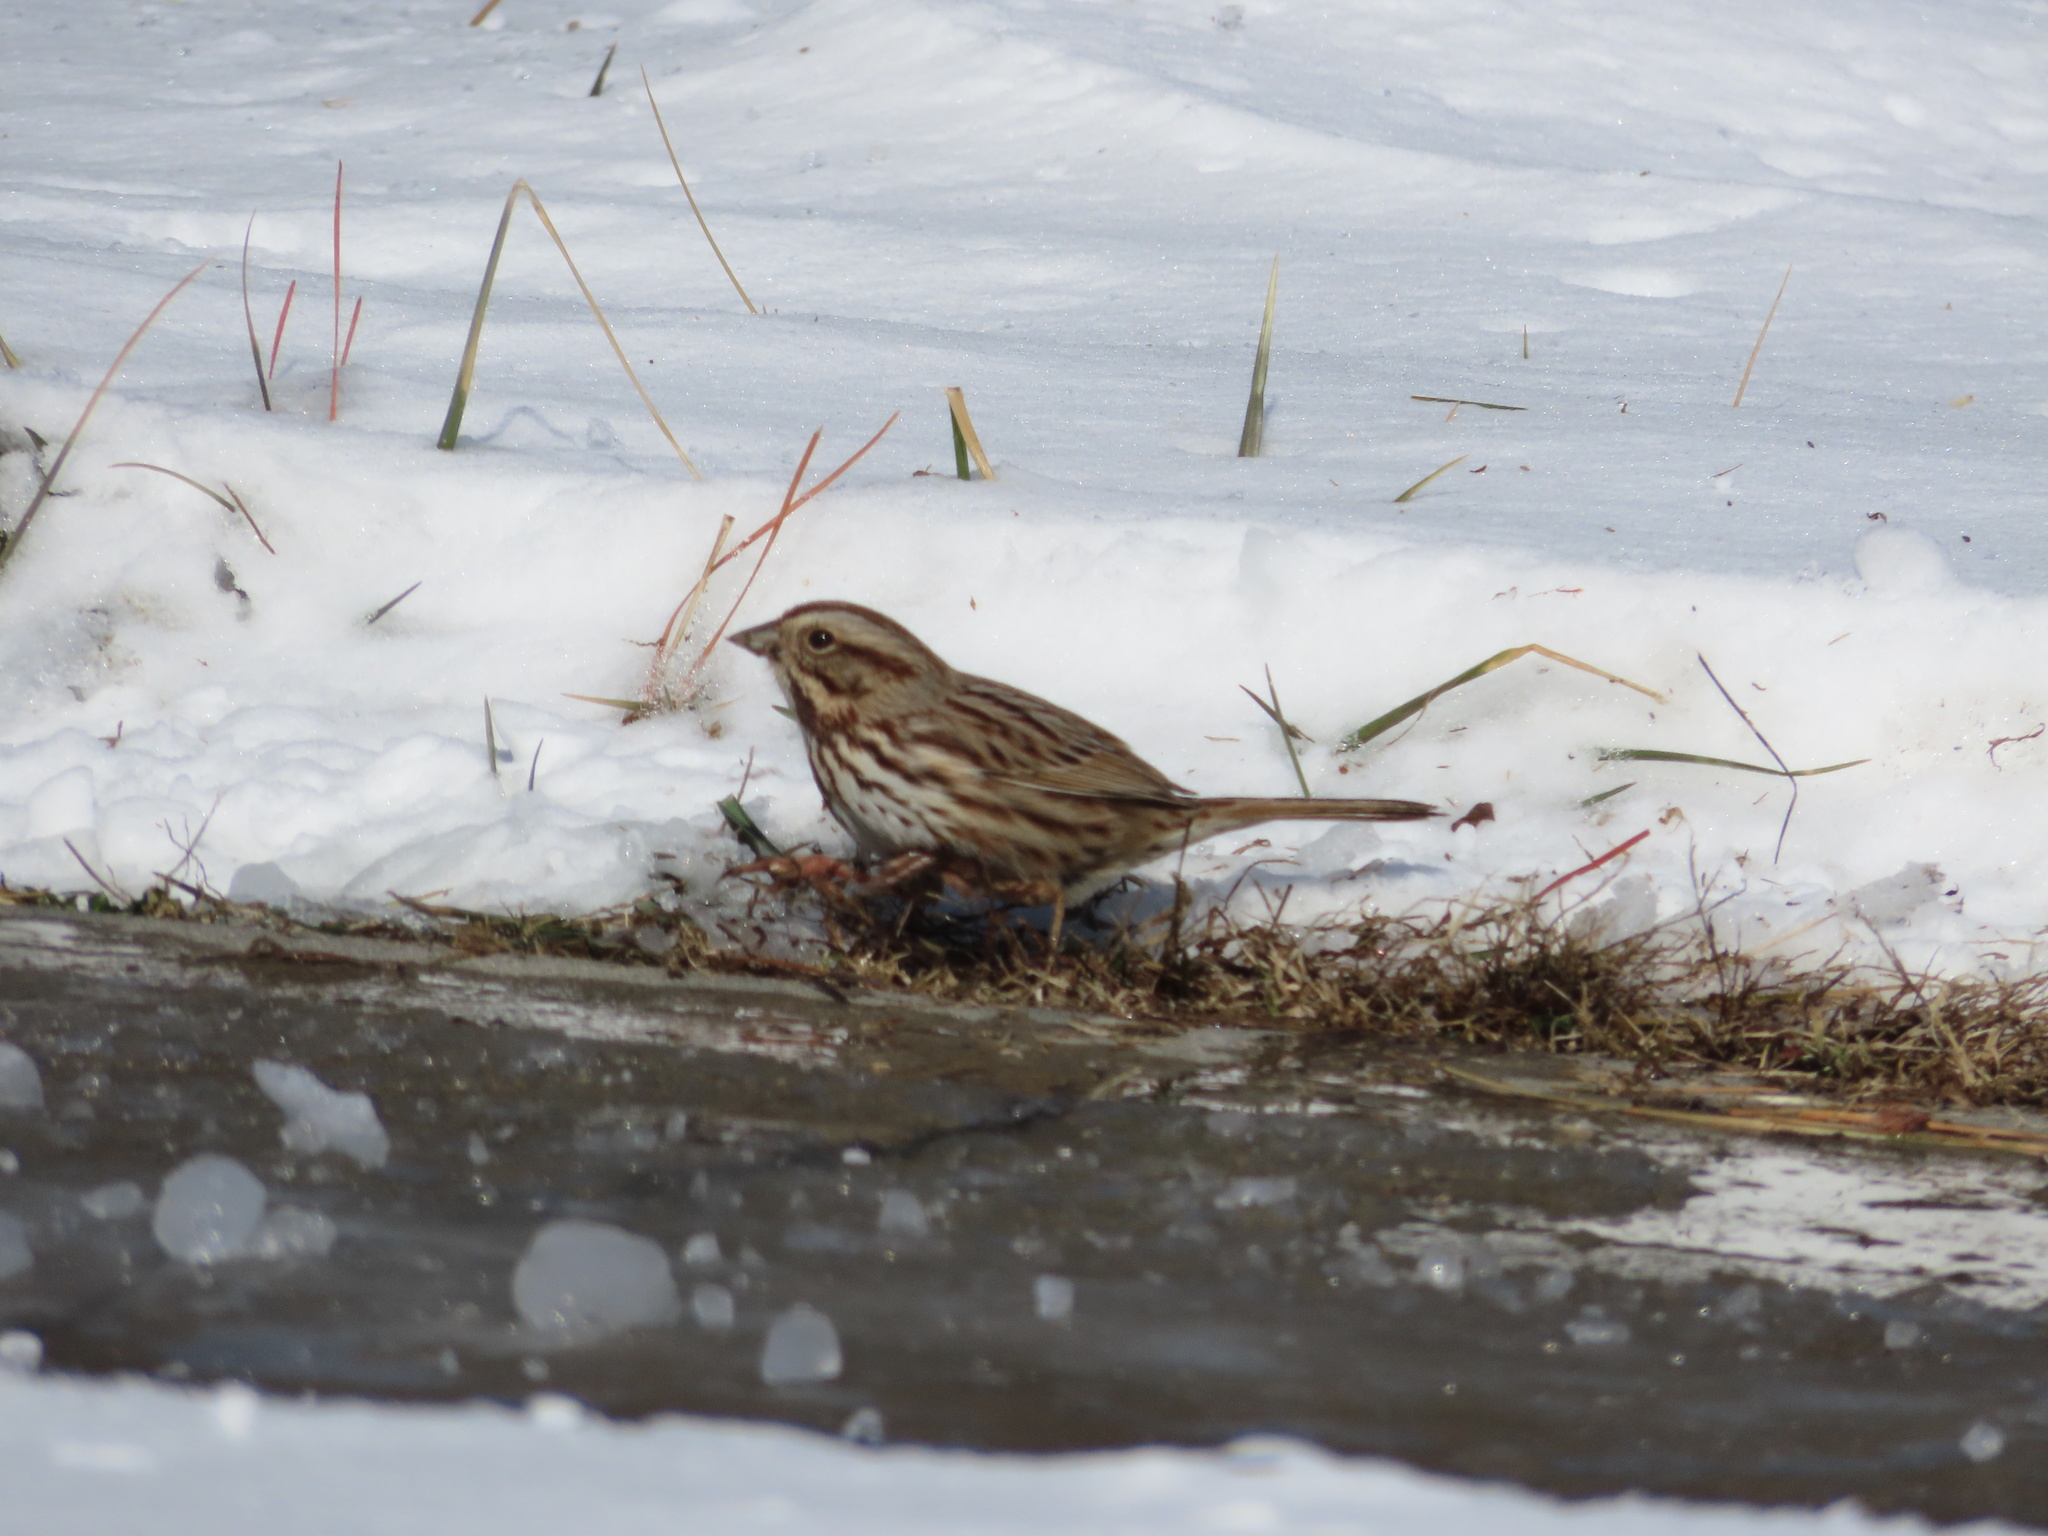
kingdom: Animalia
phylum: Chordata
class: Aves
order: Passeriformes
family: Passerellidae
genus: Melospiza
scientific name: Melospiza melodia
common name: Song sparrow
